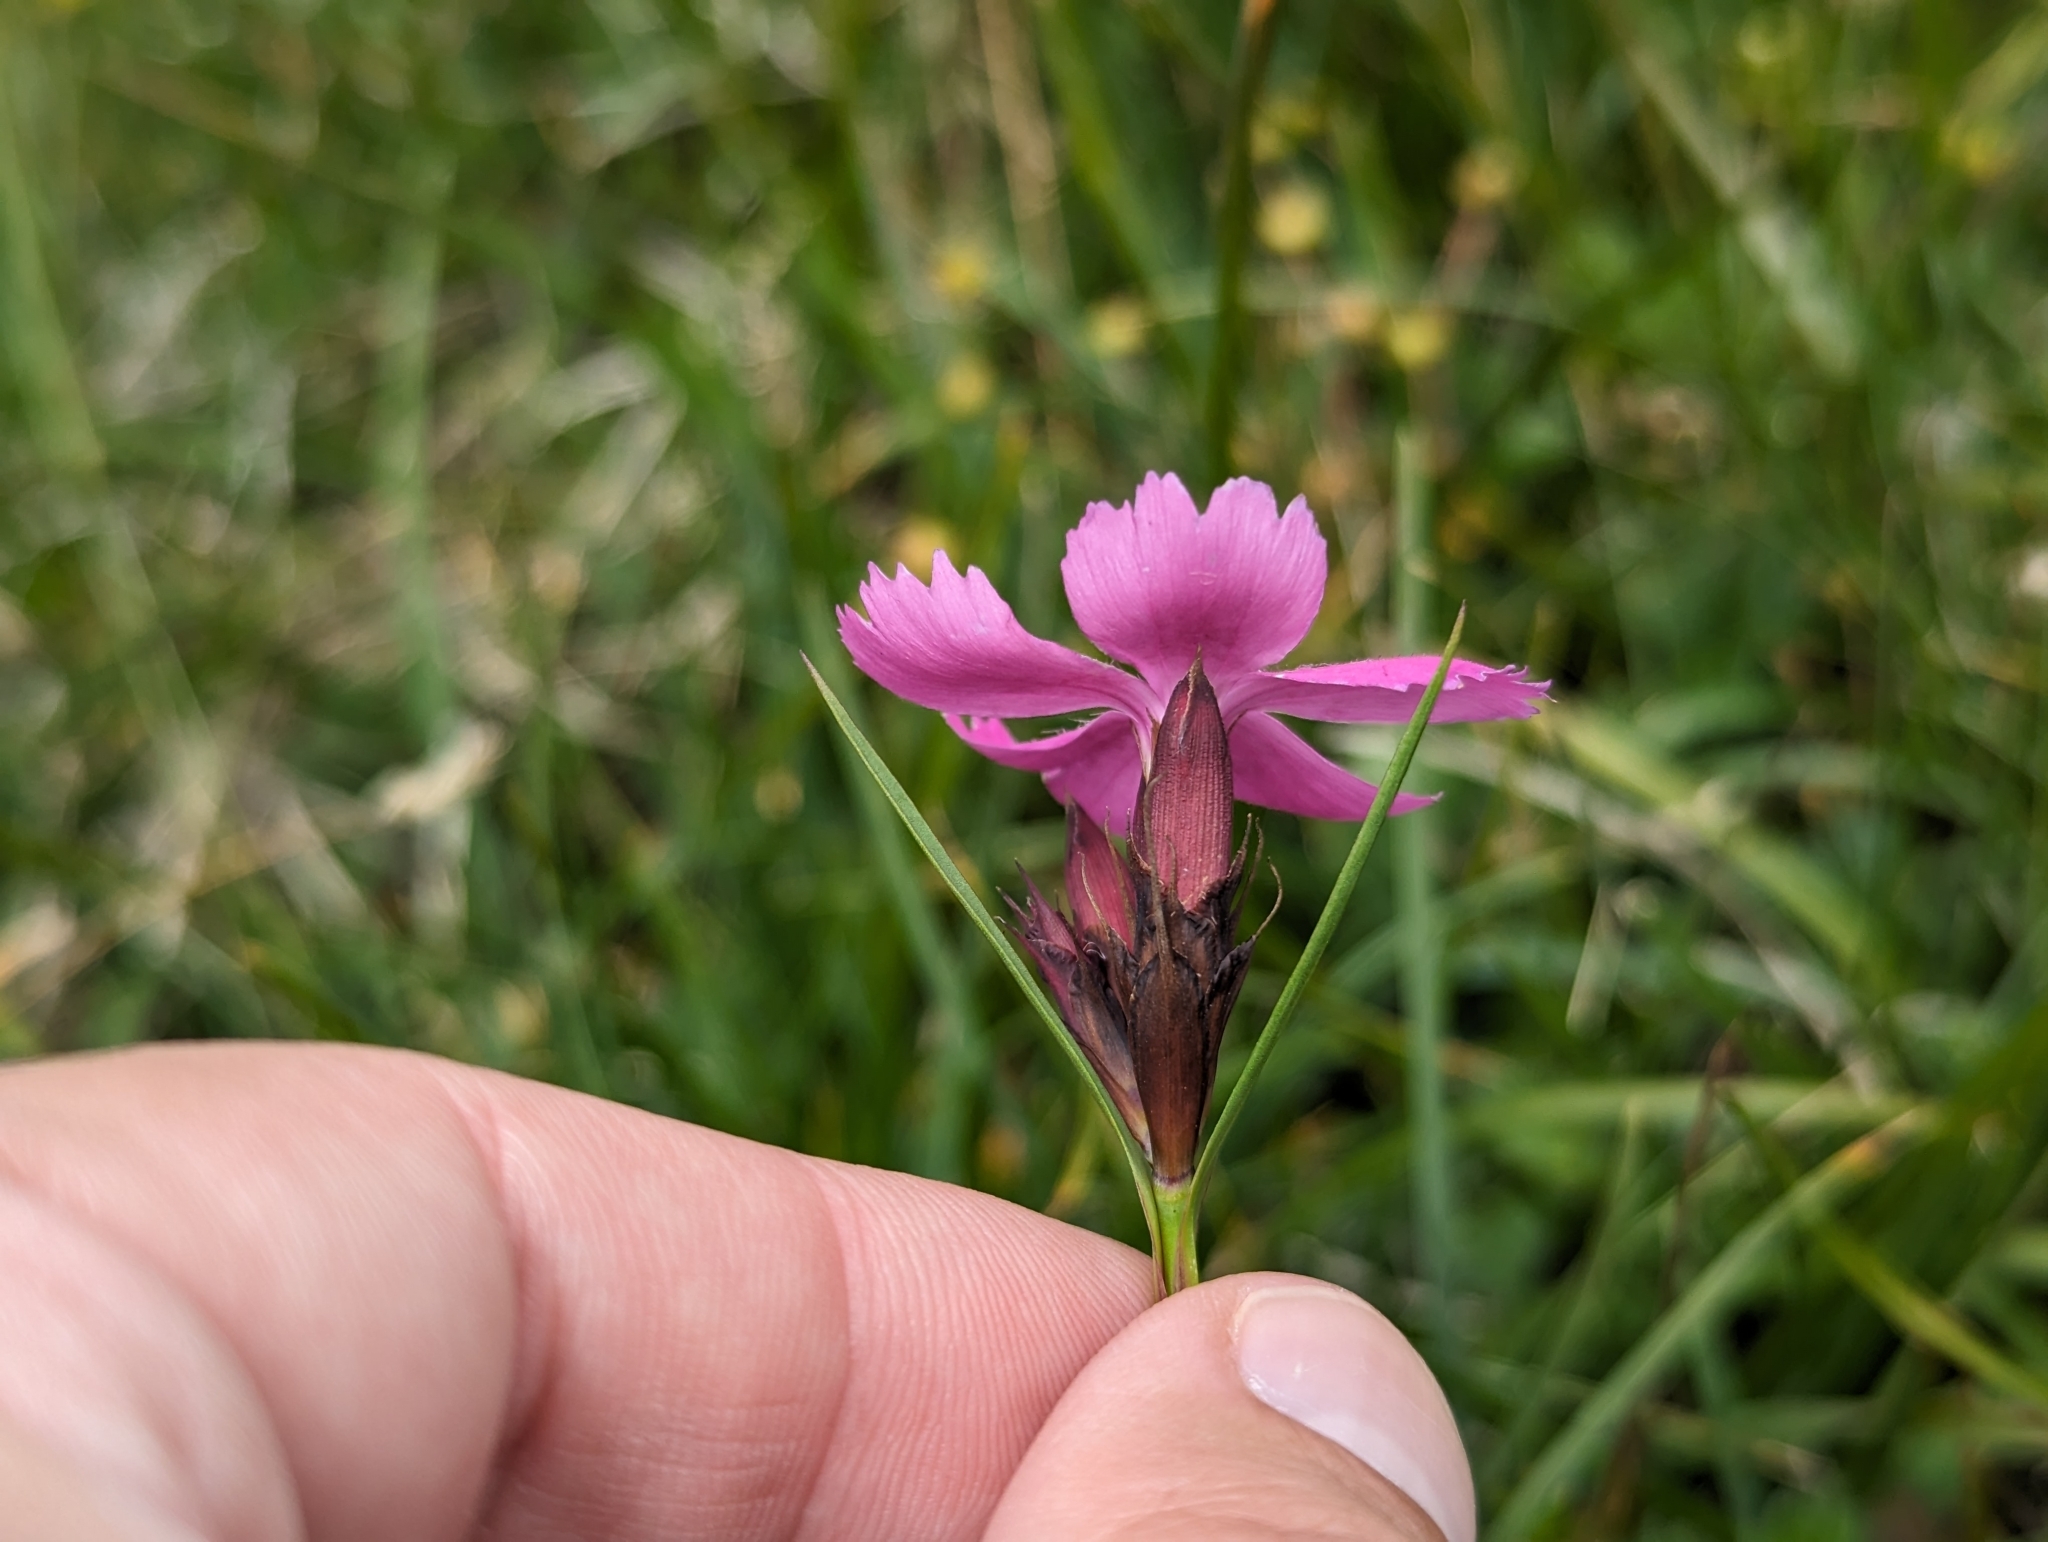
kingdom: Plantae
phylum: Tracheophyta
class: Magnoliopsida
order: Caryophyllales
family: Caryophyllaceae
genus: Dianthus
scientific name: Dianthus carthusianorum
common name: Carthusian pink
